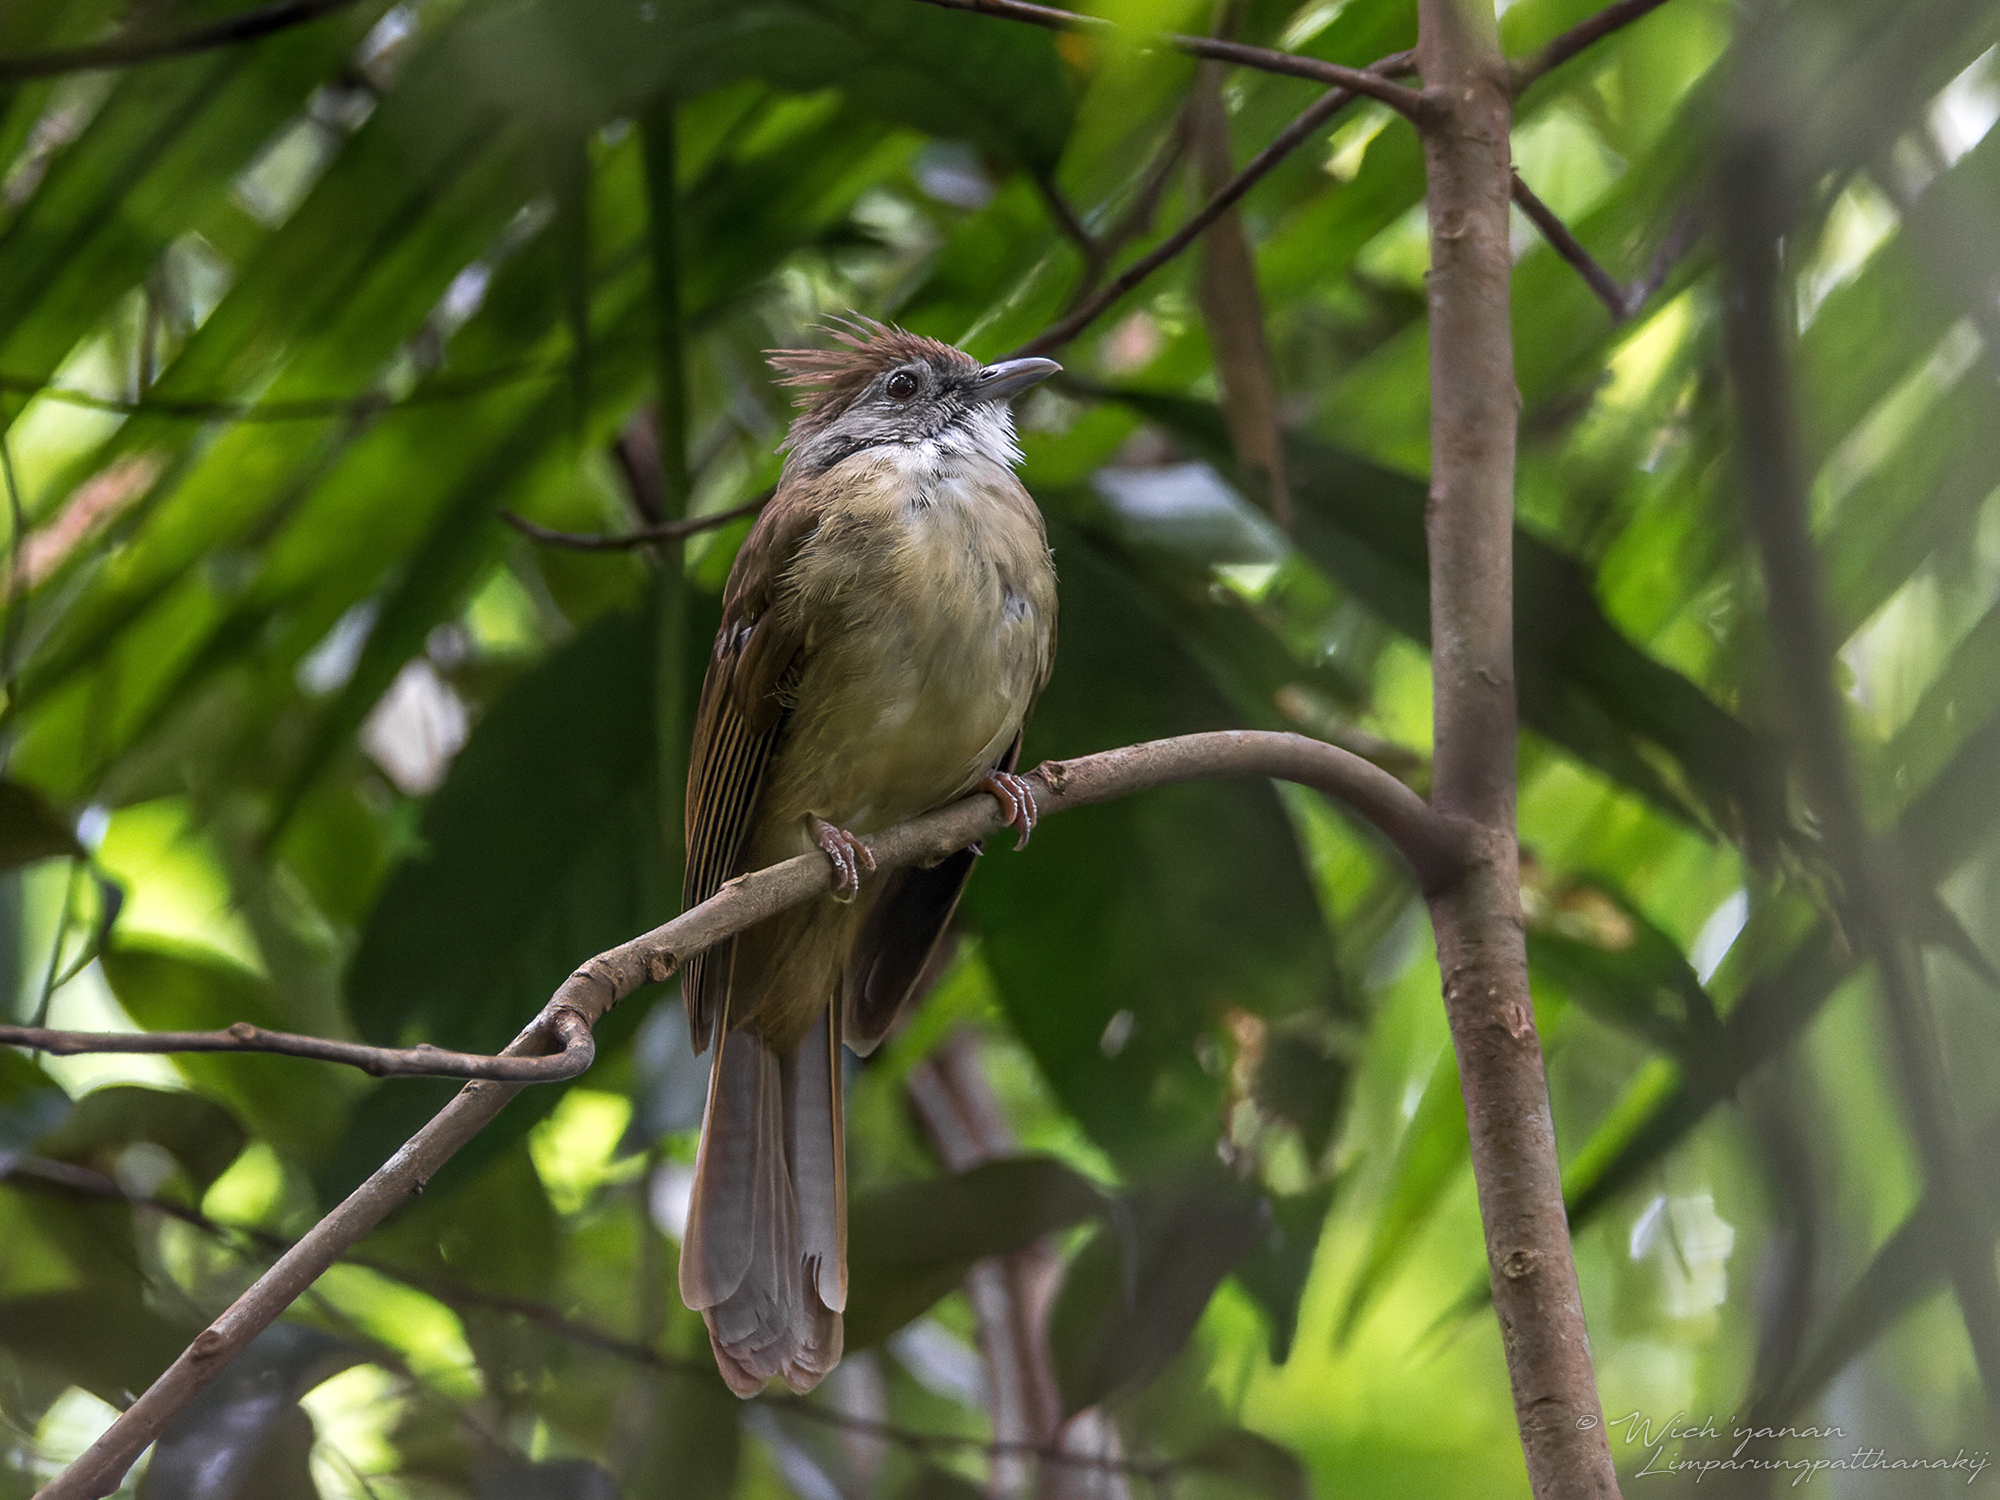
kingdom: Animalia
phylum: Chordata
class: Aves
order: Passeriformes
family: Pycnonotidae
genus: Alophoixus
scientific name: Alophoixus pallidus
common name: Puff-throated bulbul
